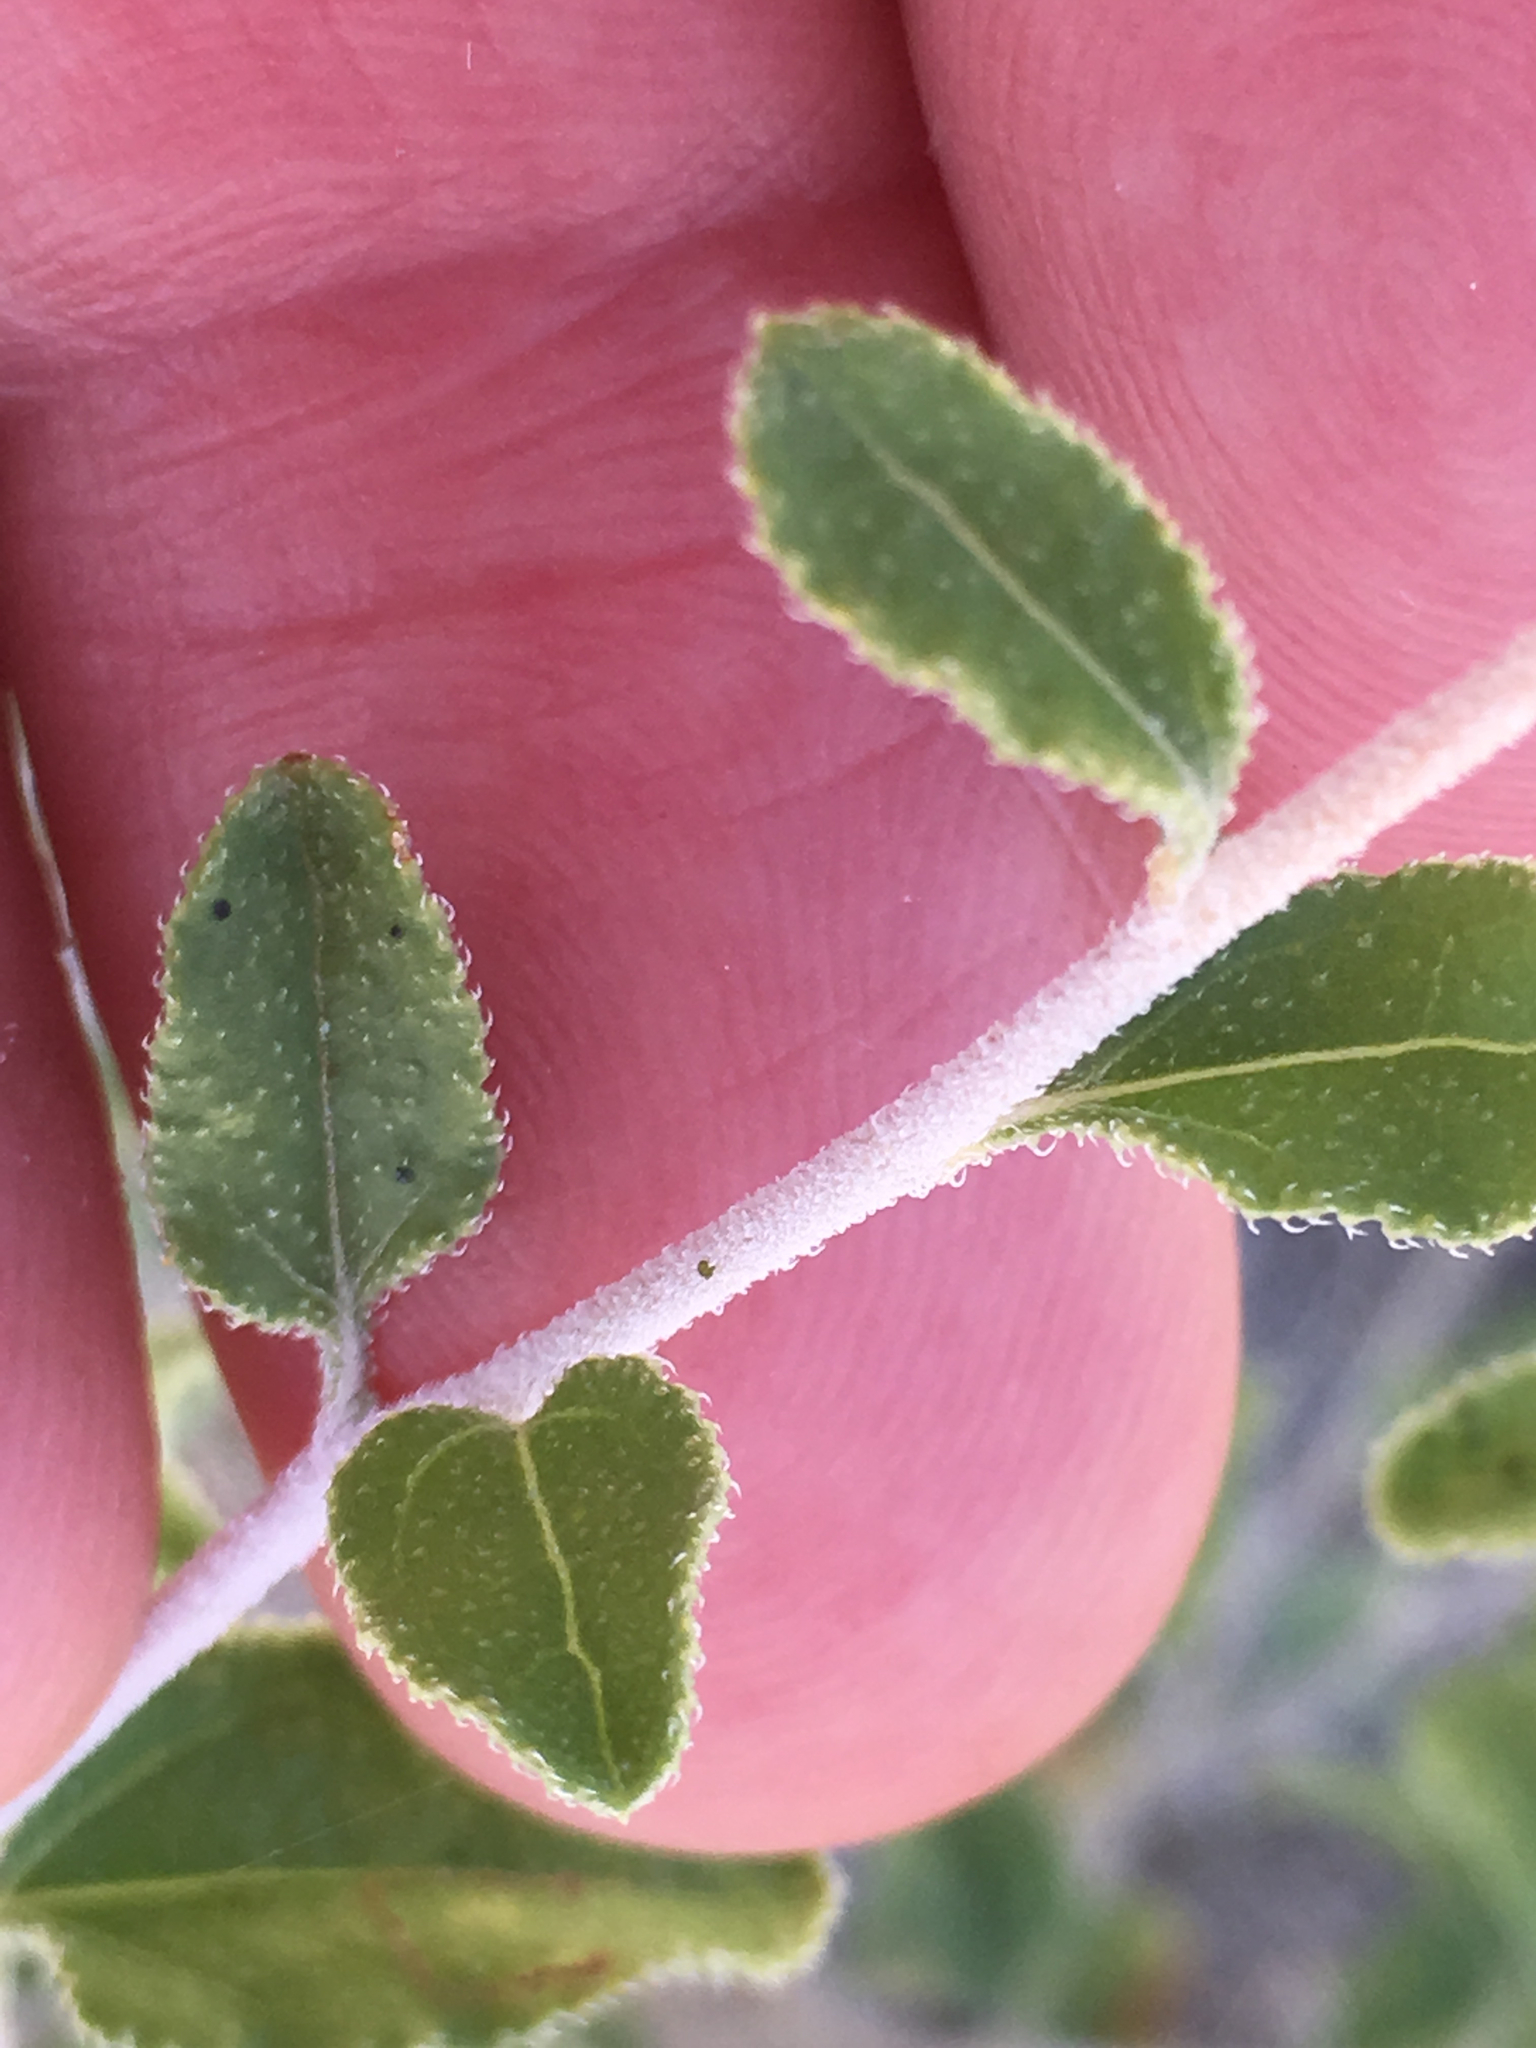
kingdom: Plantae
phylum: Tracheophyta
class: Magnoliopsida
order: Asterales
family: Asteraceae
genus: Encelia
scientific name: Encelia frutescens
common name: Bush encelia
